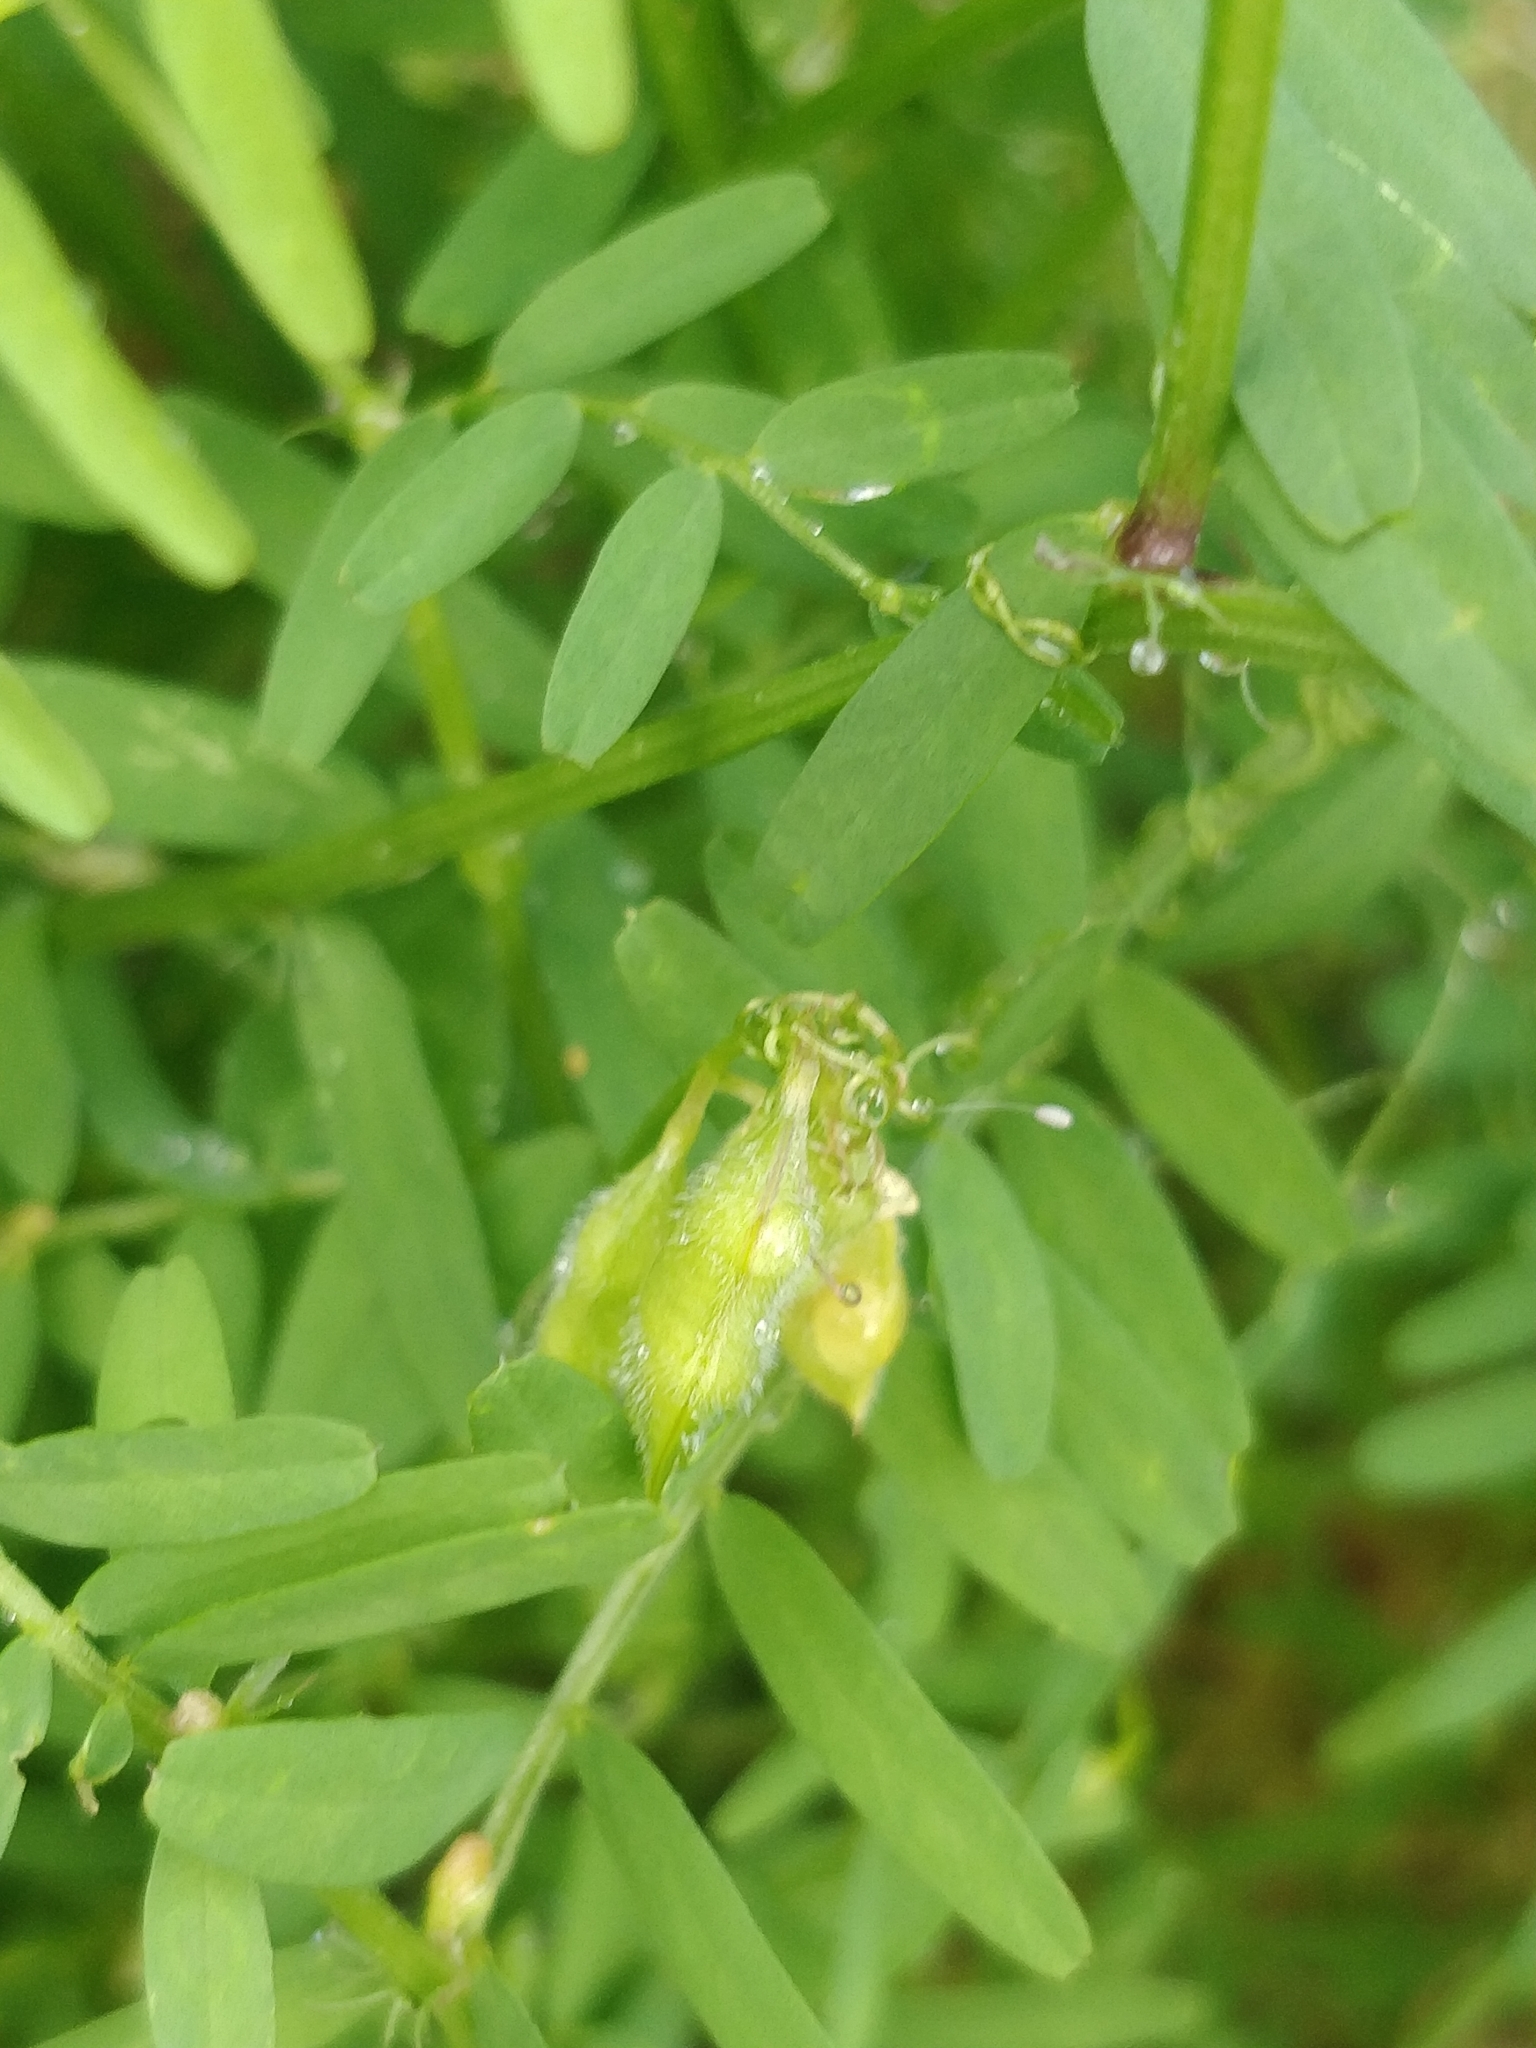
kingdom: Plantae
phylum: Tracheophyta
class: Magnoliopsida
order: Fabales
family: Fabaceae
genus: Vicia
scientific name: Vicia hirsuta
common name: Tiny vetch
